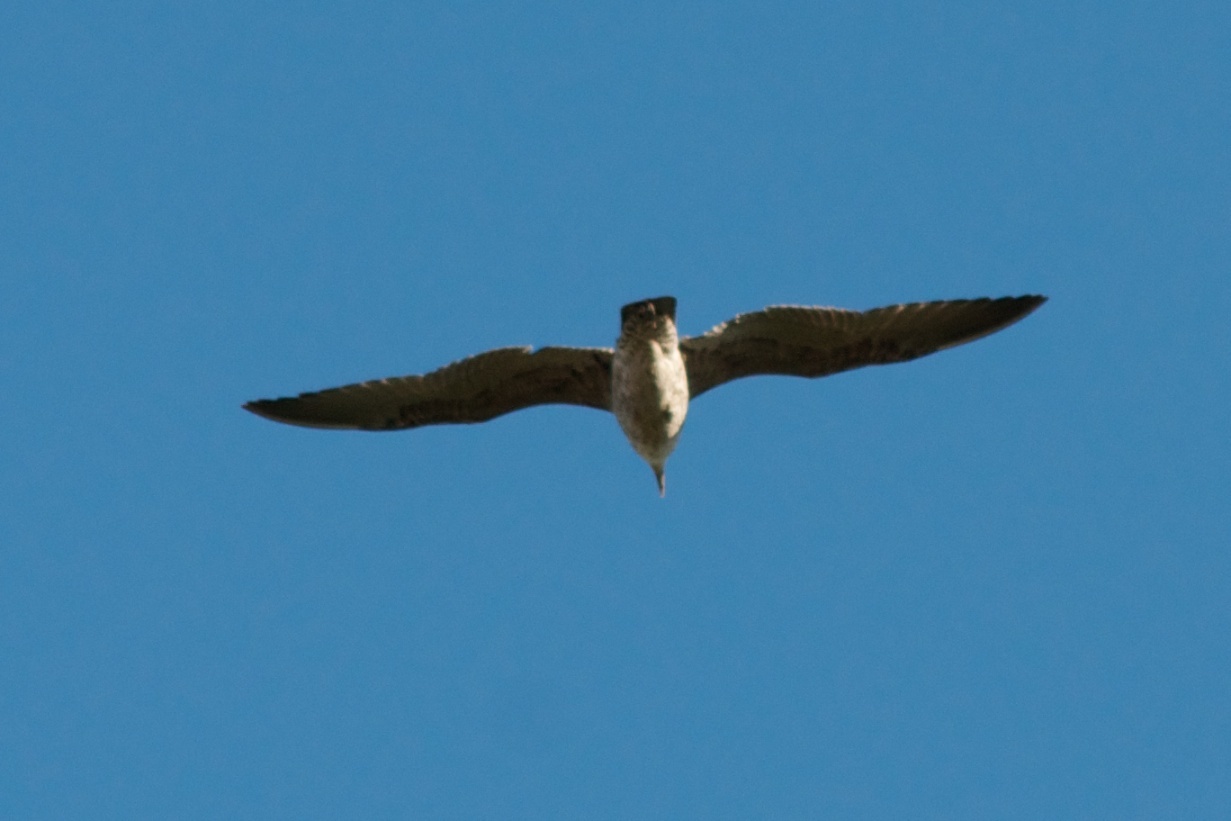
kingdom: Animalia
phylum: Chordata
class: Aves
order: Charadriiformes
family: Laridae
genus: Larus
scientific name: Larus dominicanus
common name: Kelp gull
